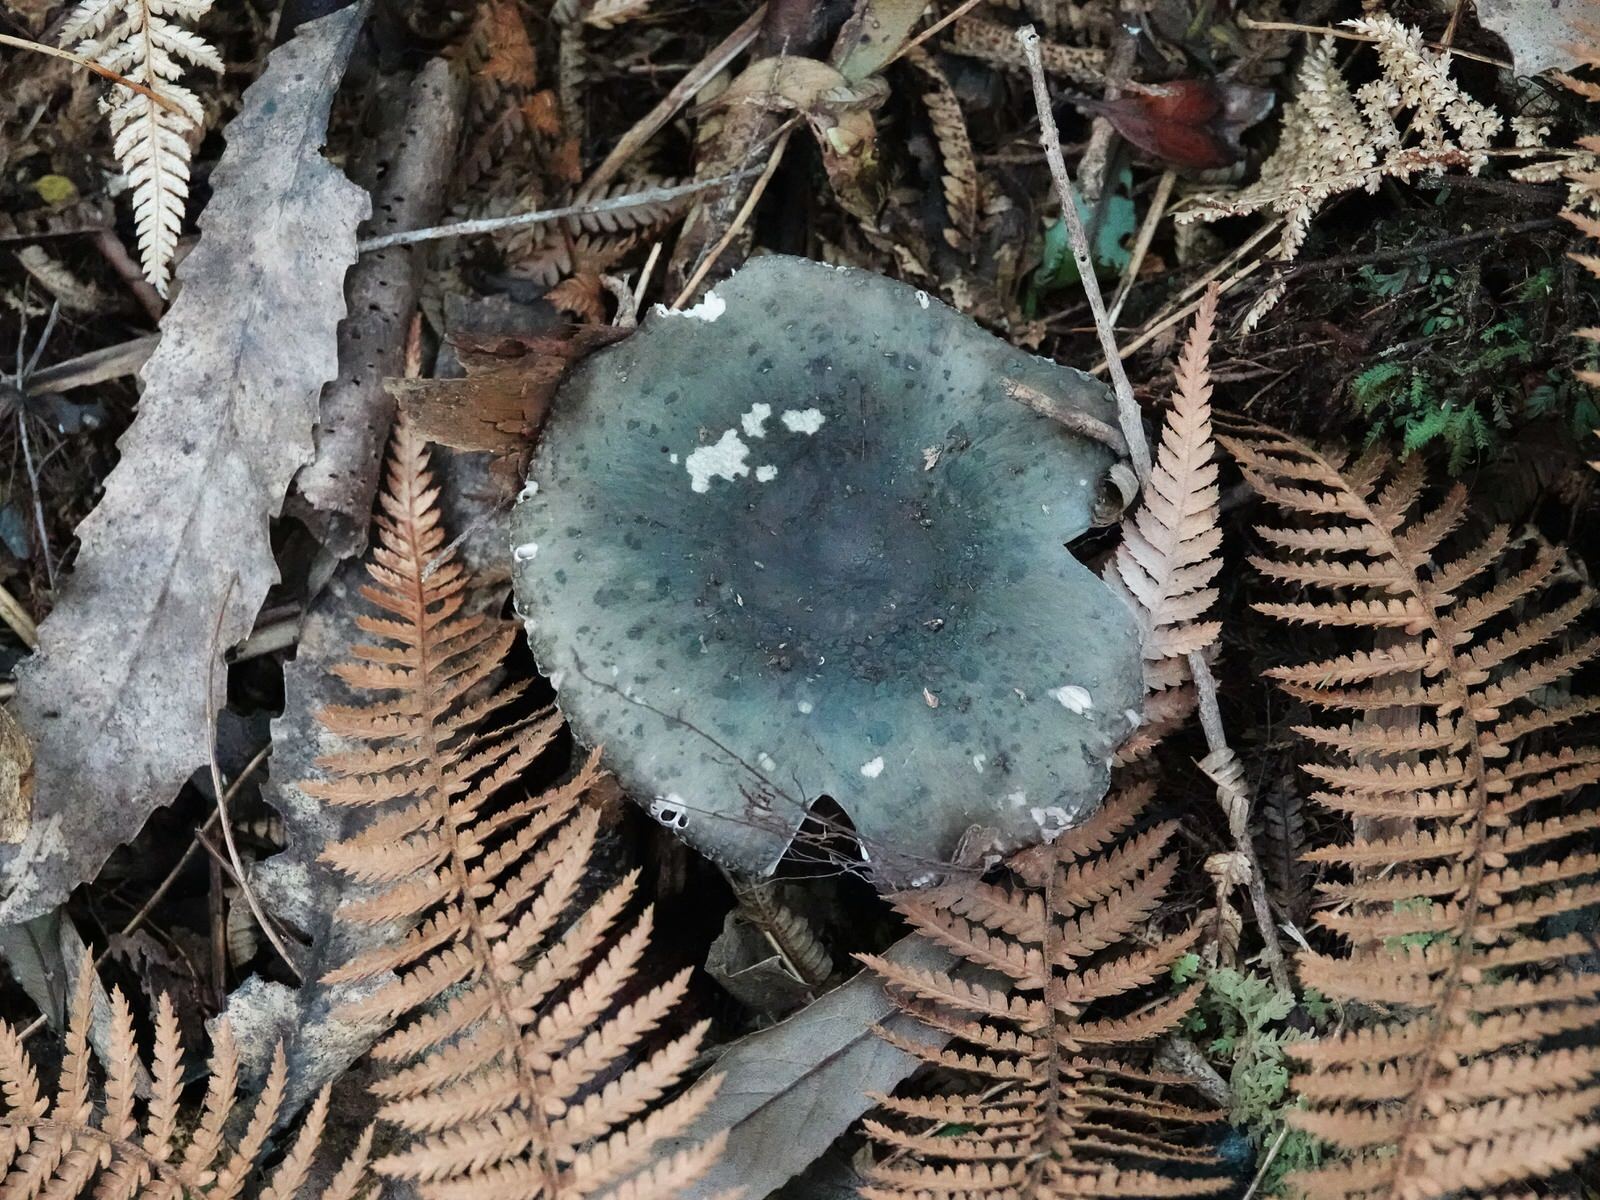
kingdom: Fungi
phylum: Basidiomycota
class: Agaricomycetes
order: Russulales
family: Russulaceae
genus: Russula
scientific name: Russula griseoviridis
